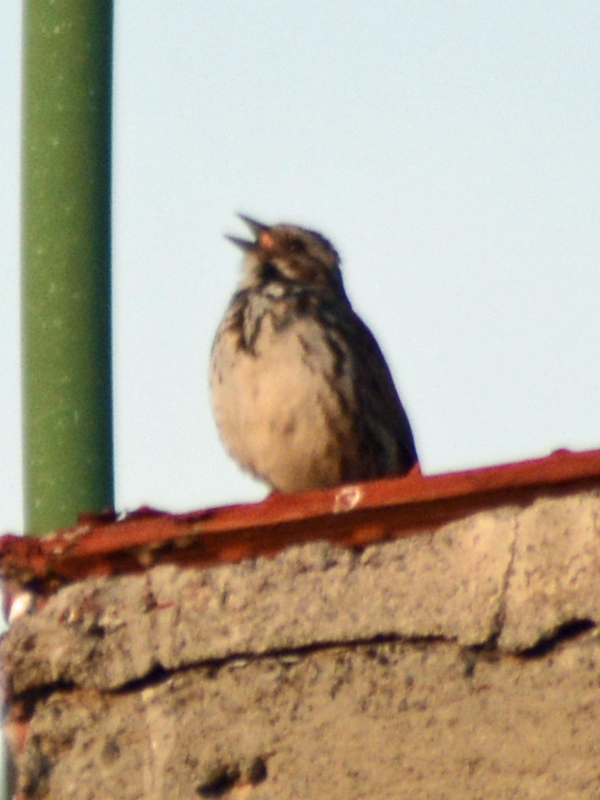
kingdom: Animalia
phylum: Chordata
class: Aves
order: Passeriformes
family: Passerellidae
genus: Melospiza
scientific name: Melospiza melodia
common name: Song sparrow
